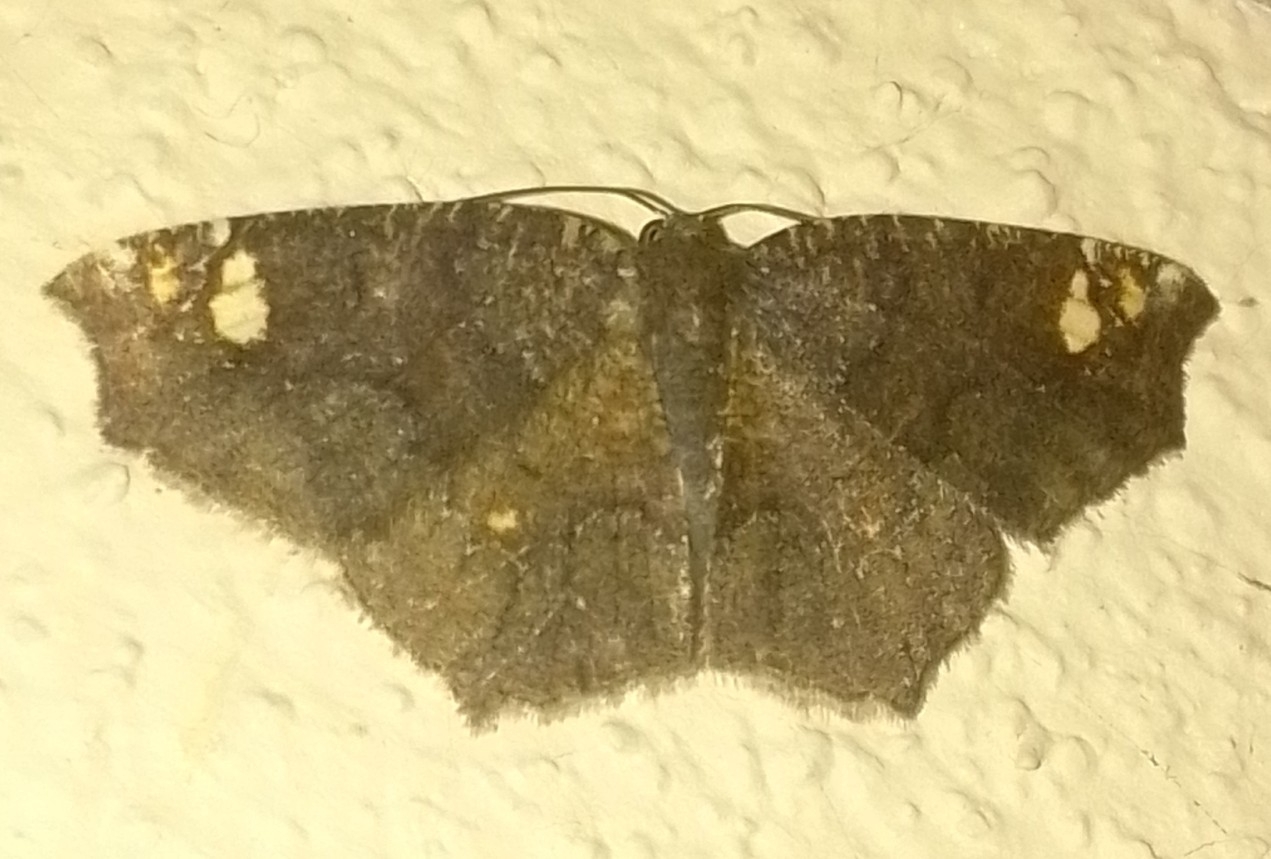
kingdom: Animalia
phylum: Arthropoda
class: Insecta
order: Lepidoptera
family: Geometridae
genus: Anisoperas
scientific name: Anisoperas tessellata
